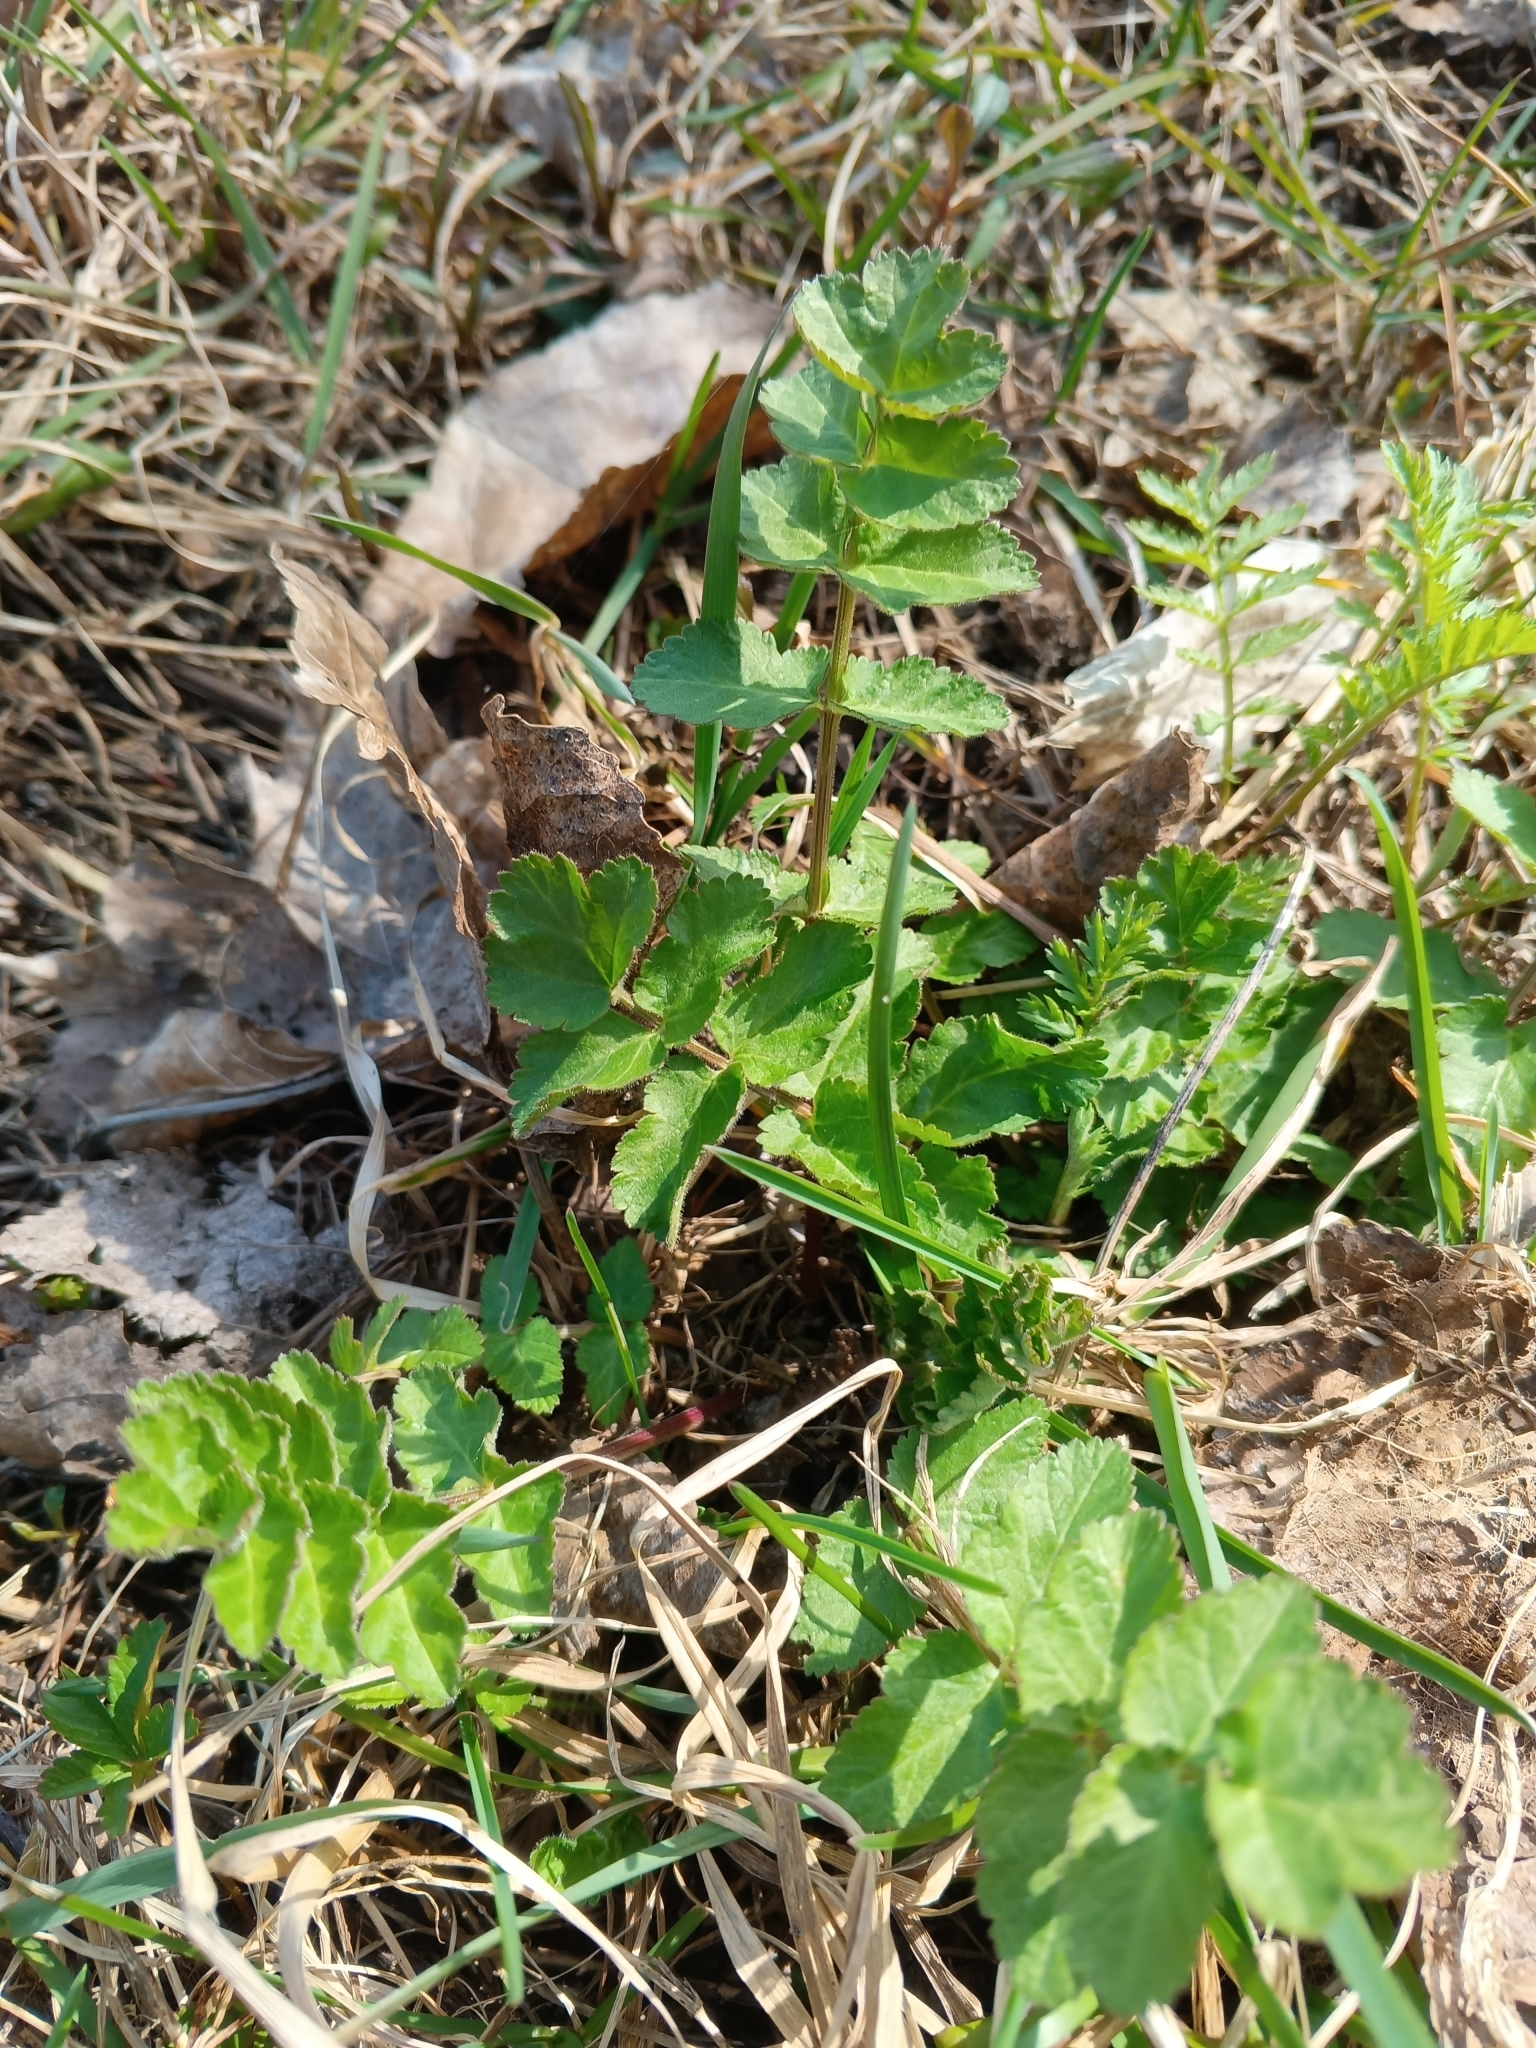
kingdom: Plantae
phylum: Tracheophyta
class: Magnoliopsida
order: Apiales
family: Apiaceae
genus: Pastinaca
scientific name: Pastinaca sativa
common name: Wild parsnip
